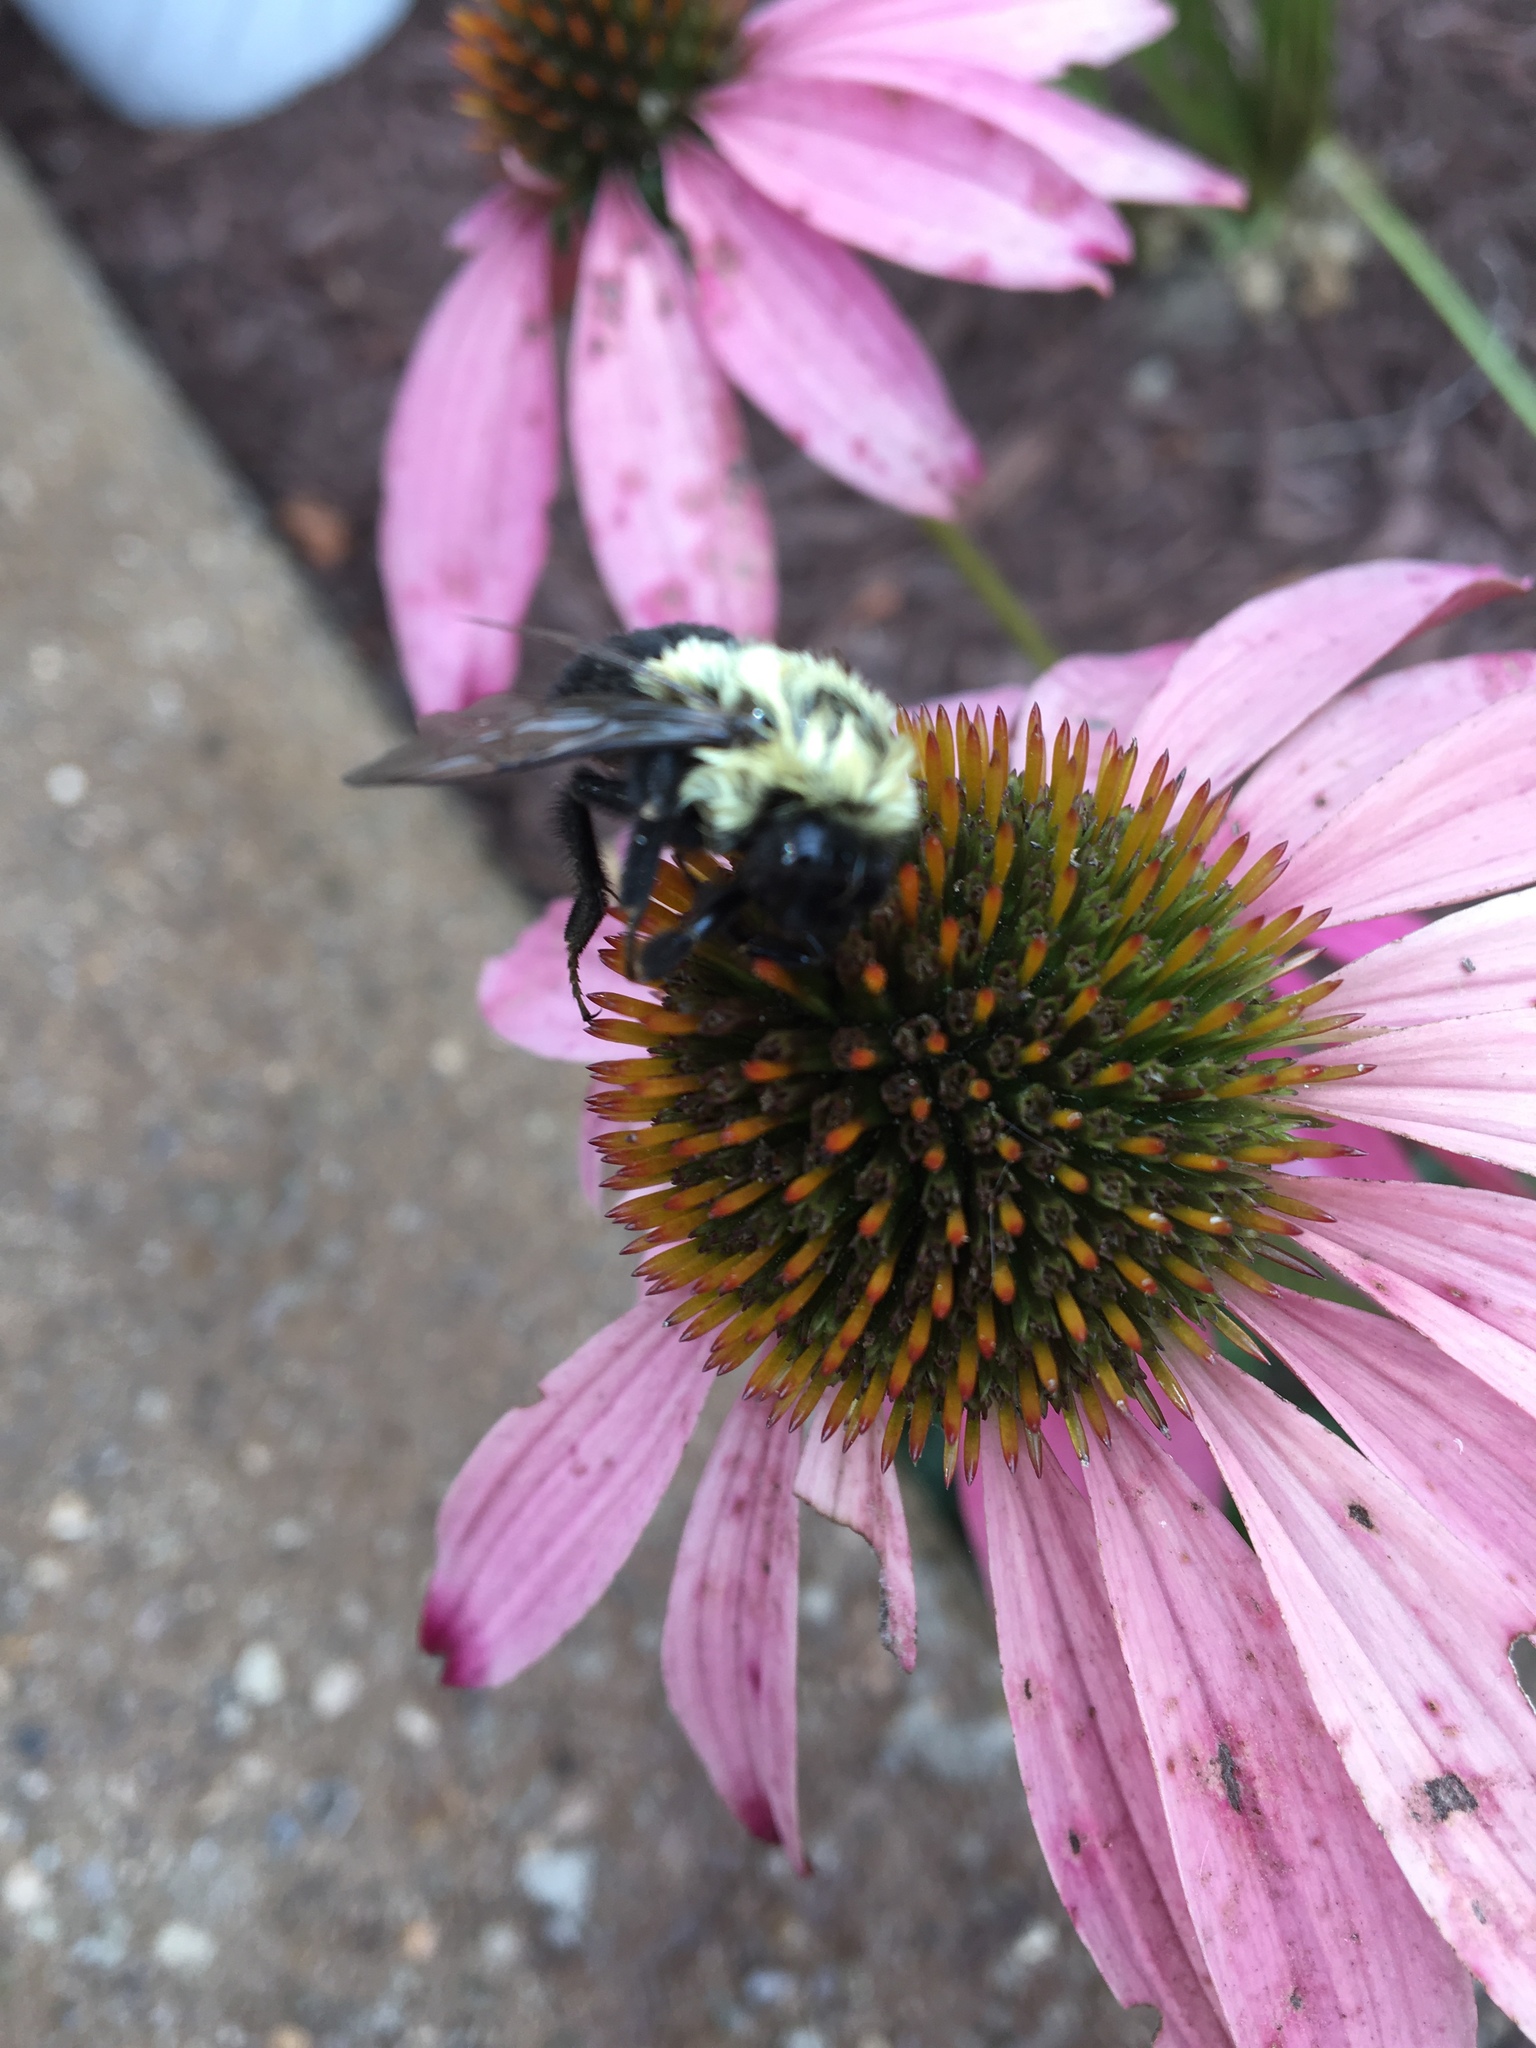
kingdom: Animalia
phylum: Arthropoda
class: Insecta
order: Hymenoptera
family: Apidae
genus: Bombus
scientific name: Bombus impatiens
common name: Common eastern bumble bee
